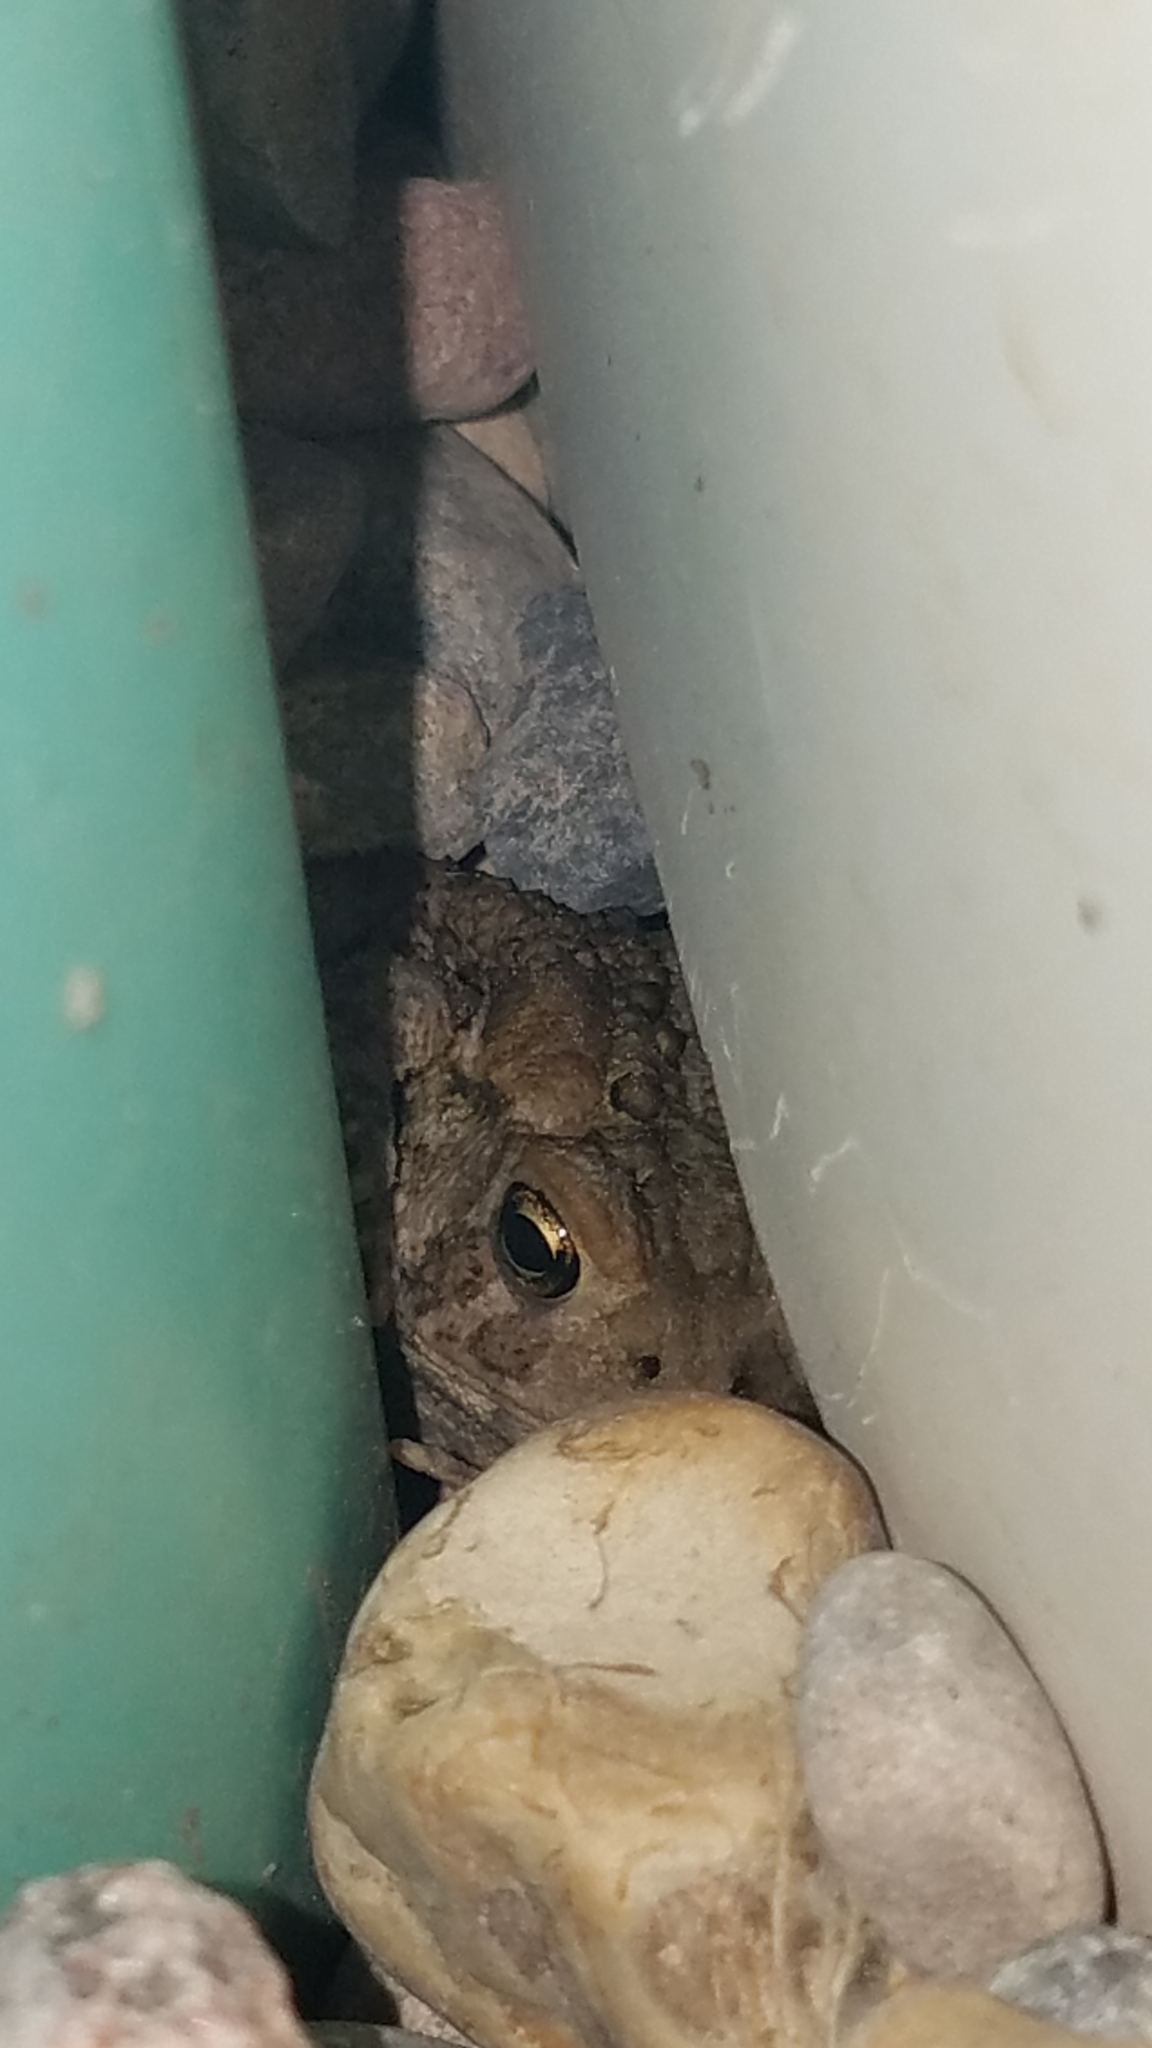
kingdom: Animalia
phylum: Chordata
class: Amphibia
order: Anura
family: Bufonidae
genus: Anaxyrus
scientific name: Anaxyrus americanus
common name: American toad
